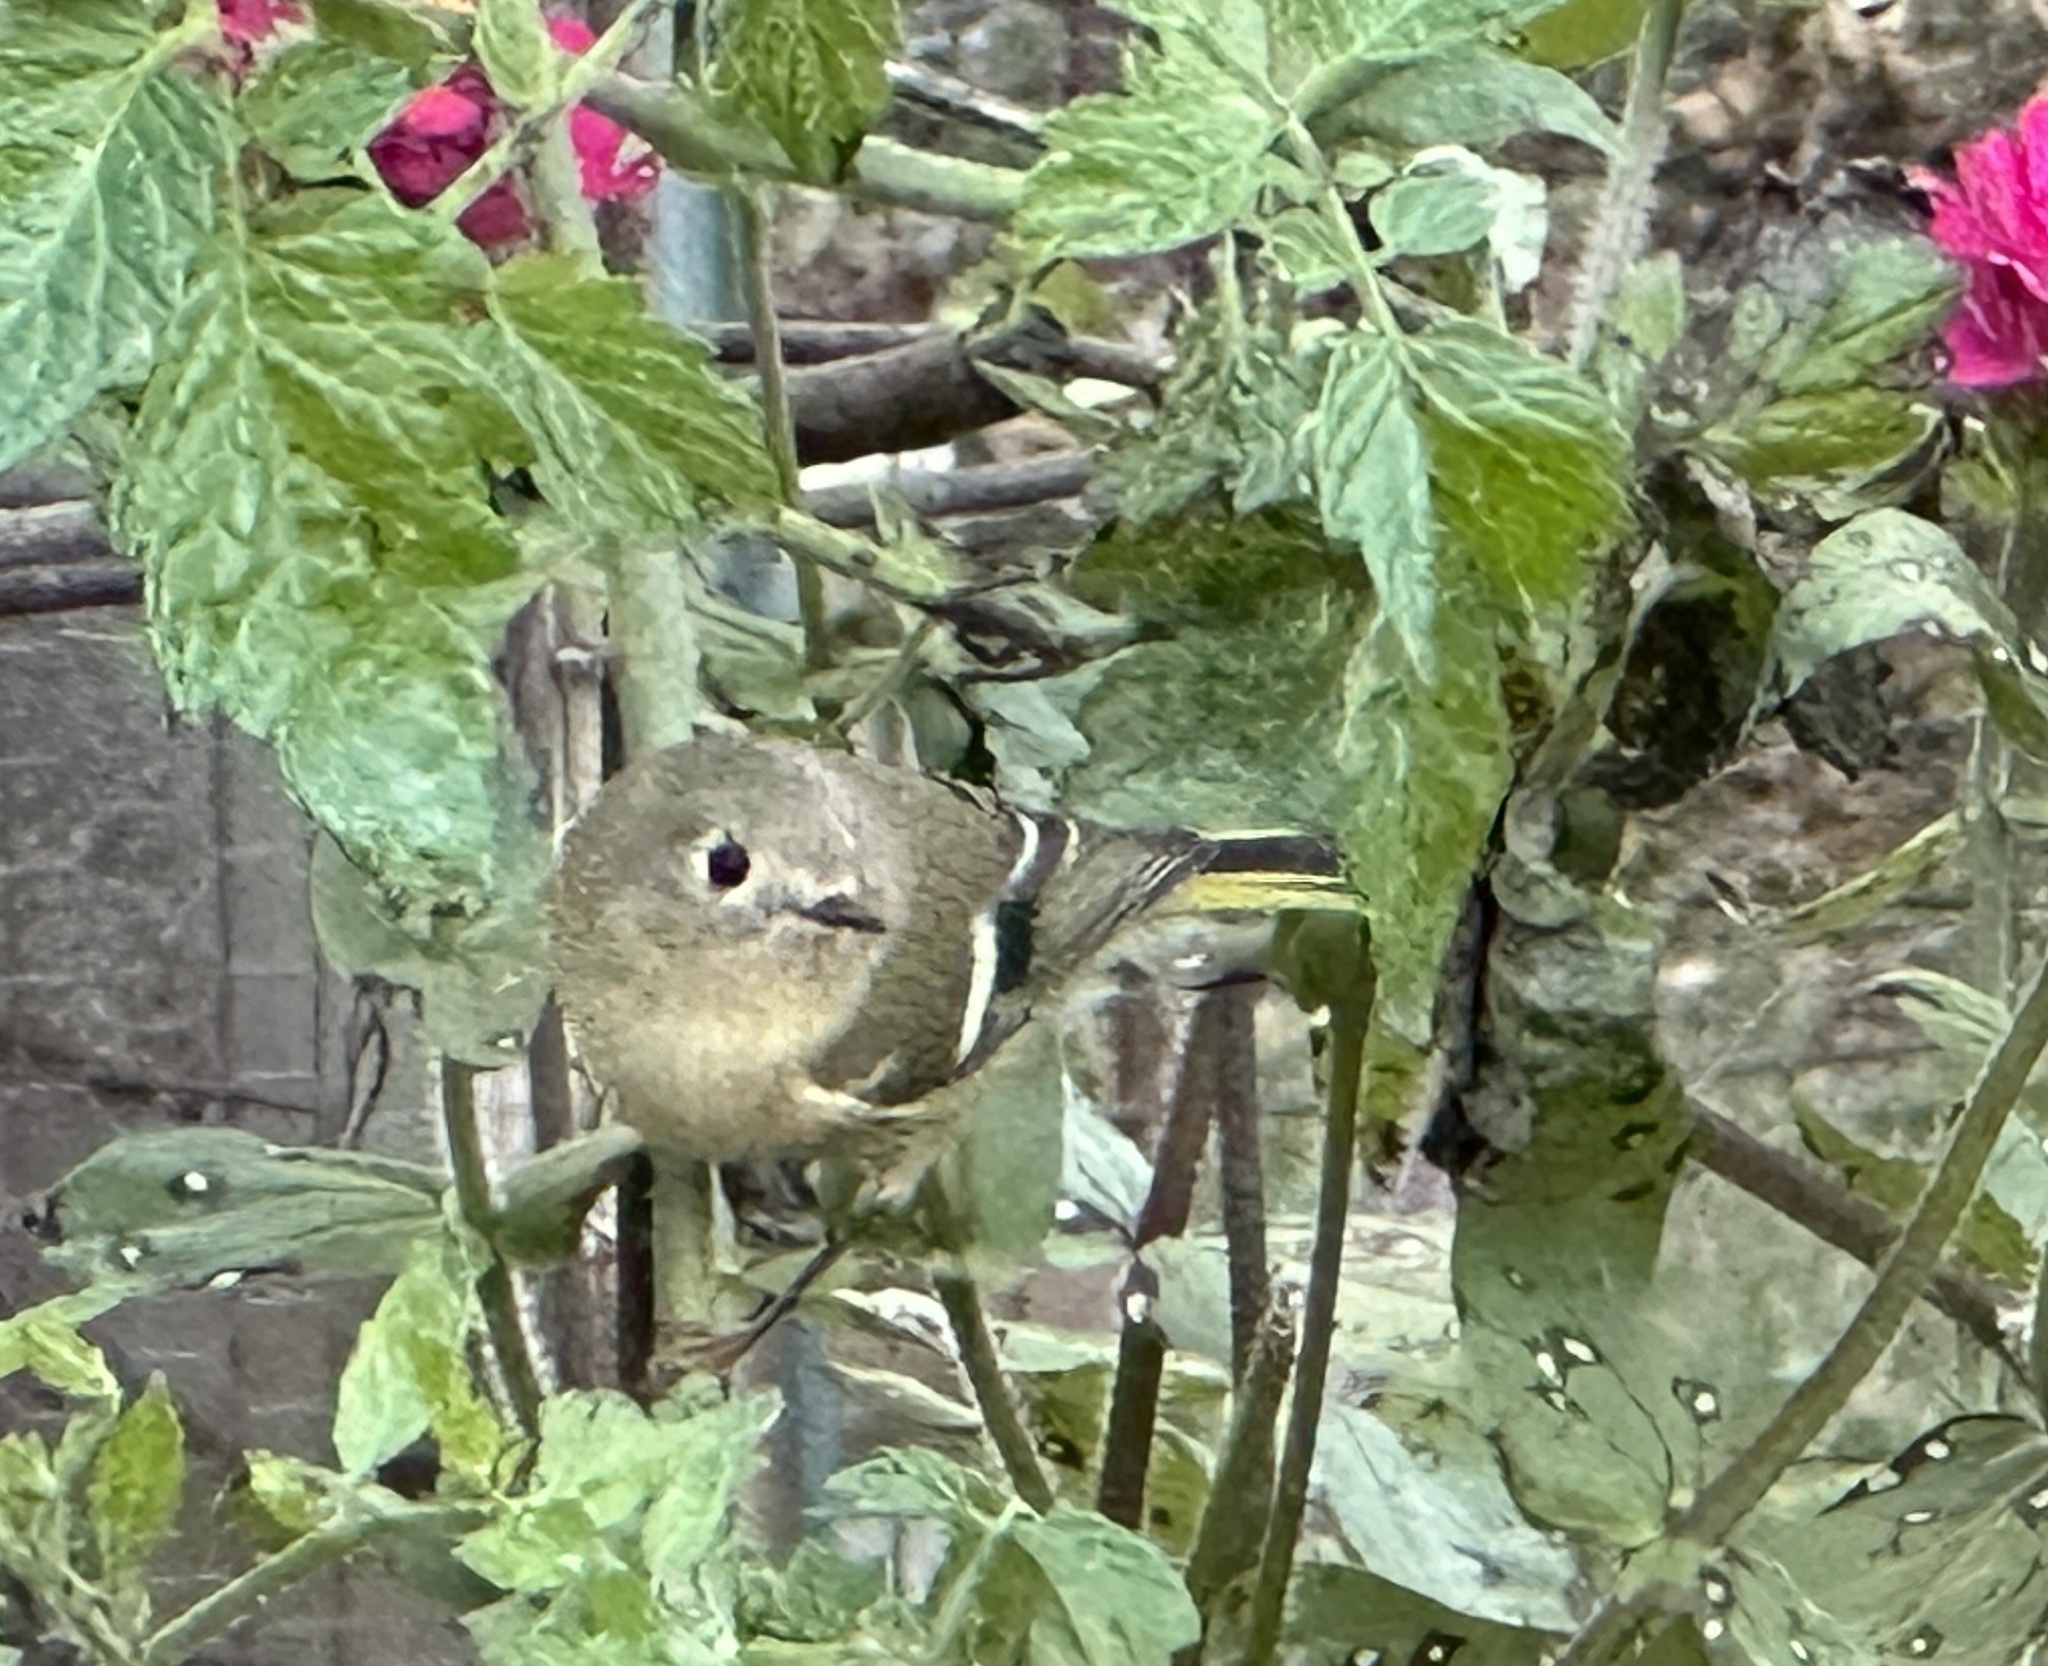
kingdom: Animalia
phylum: Chordata
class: Aves
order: Passeriformes
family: Regulidae
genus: Regulus
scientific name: Regulus calendula
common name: Ruby-crowned kinglet
